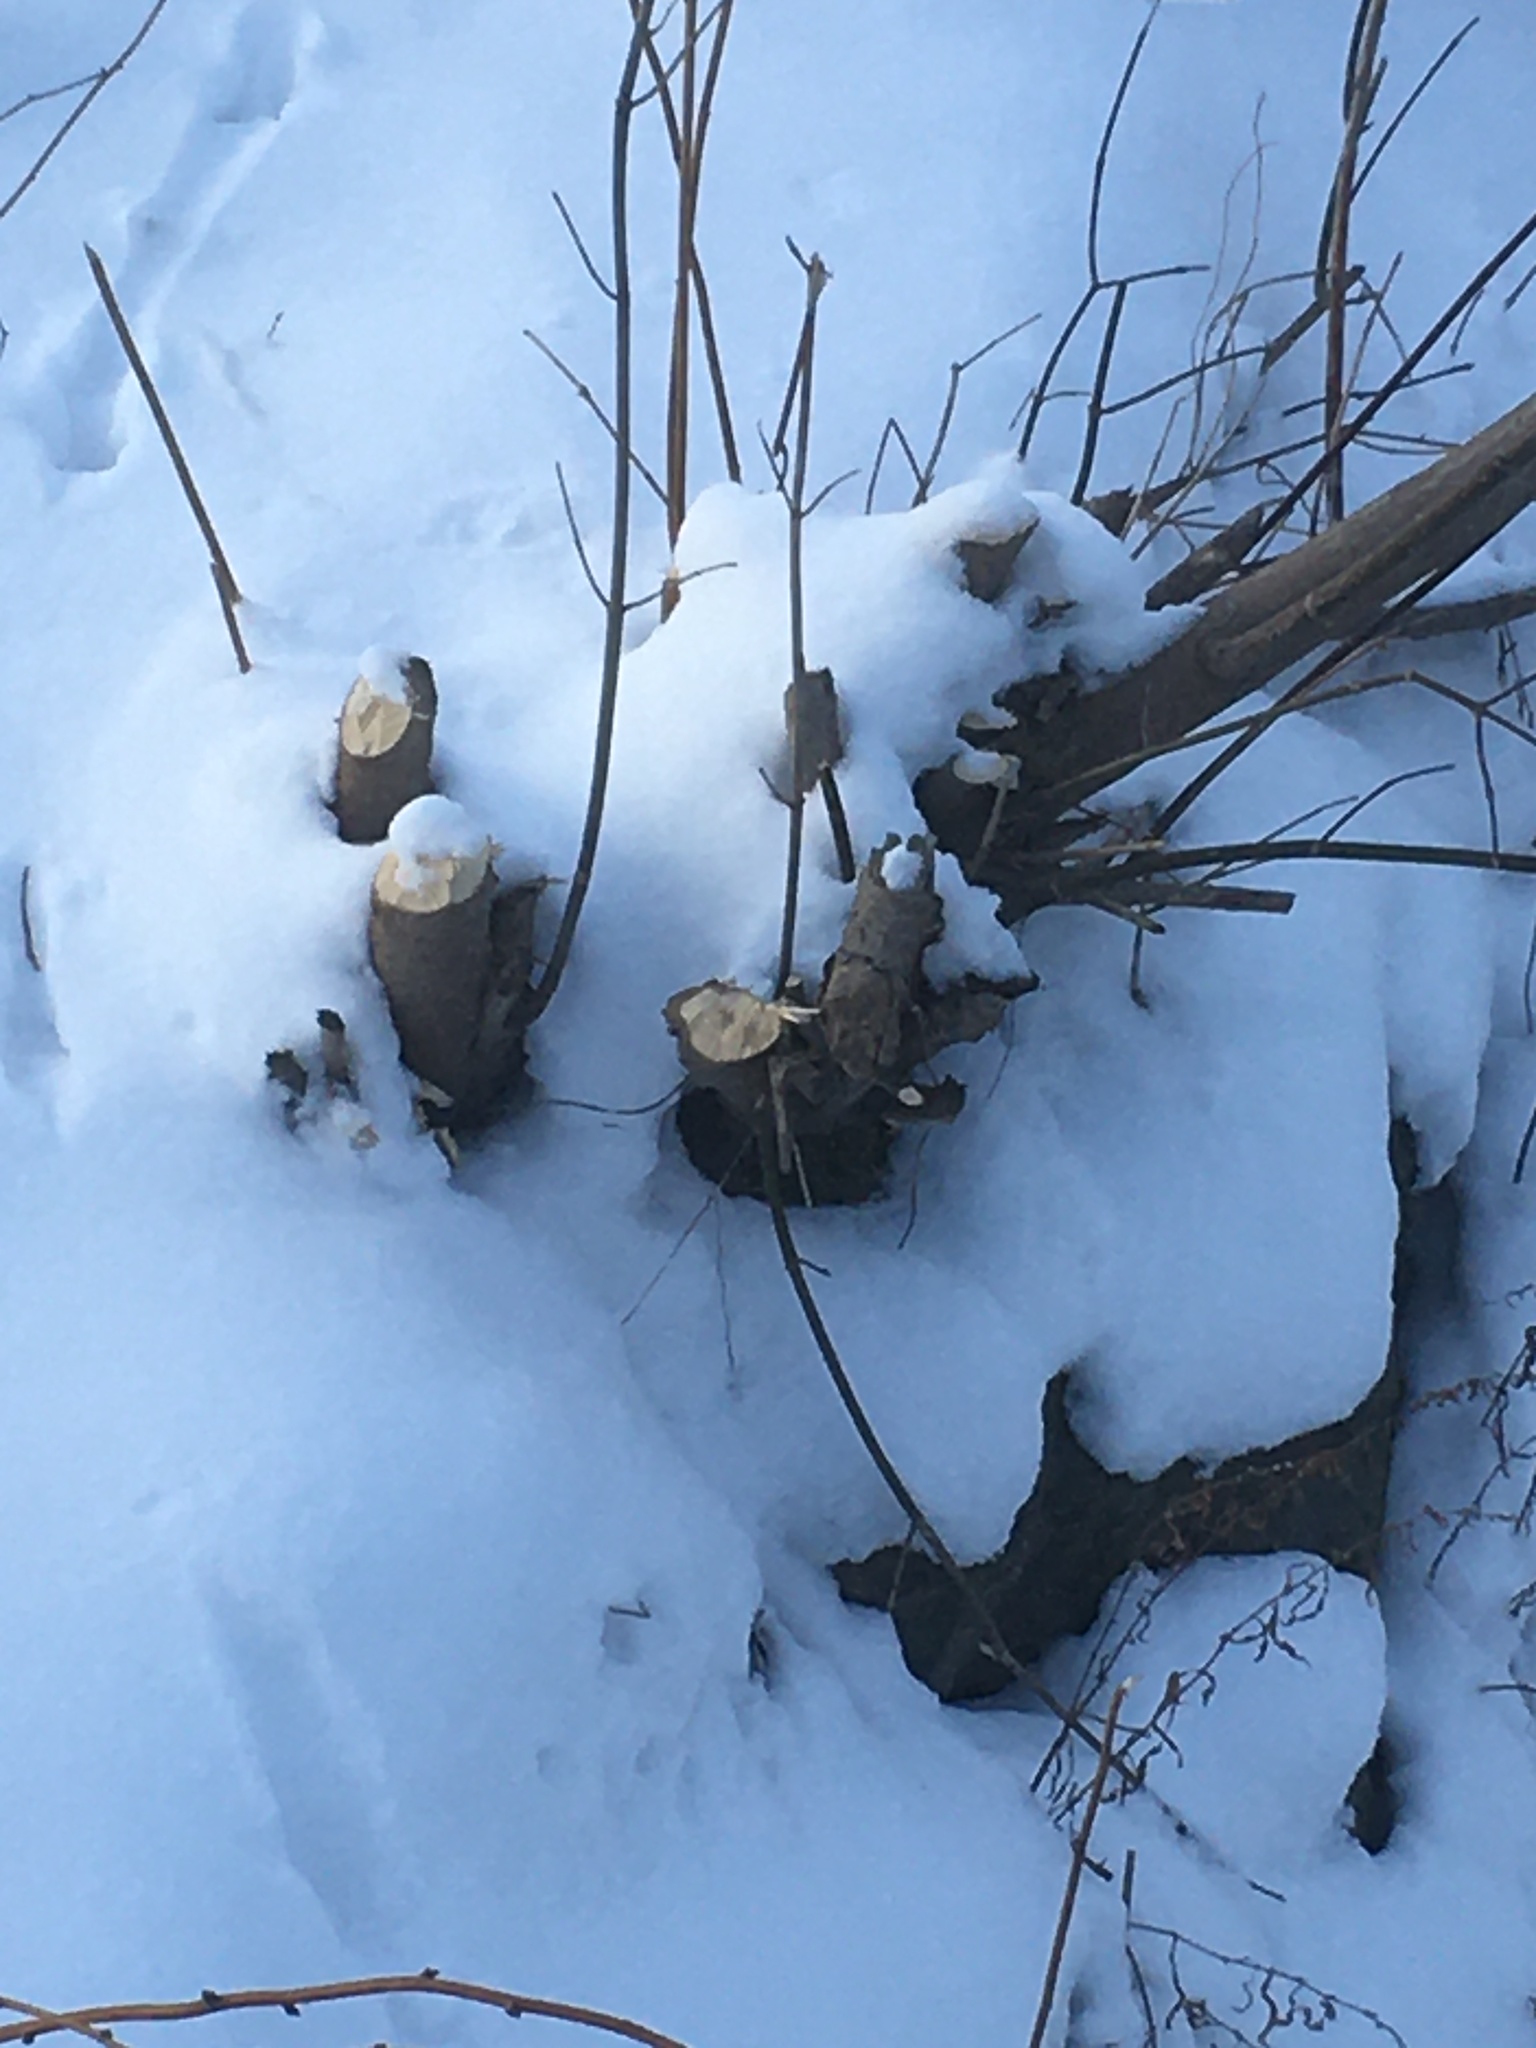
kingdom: Animalia
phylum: Chordata
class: Mammalia
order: Rodentia
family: Castoridae
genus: Castor
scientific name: Castor canadensis
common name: American beaver
